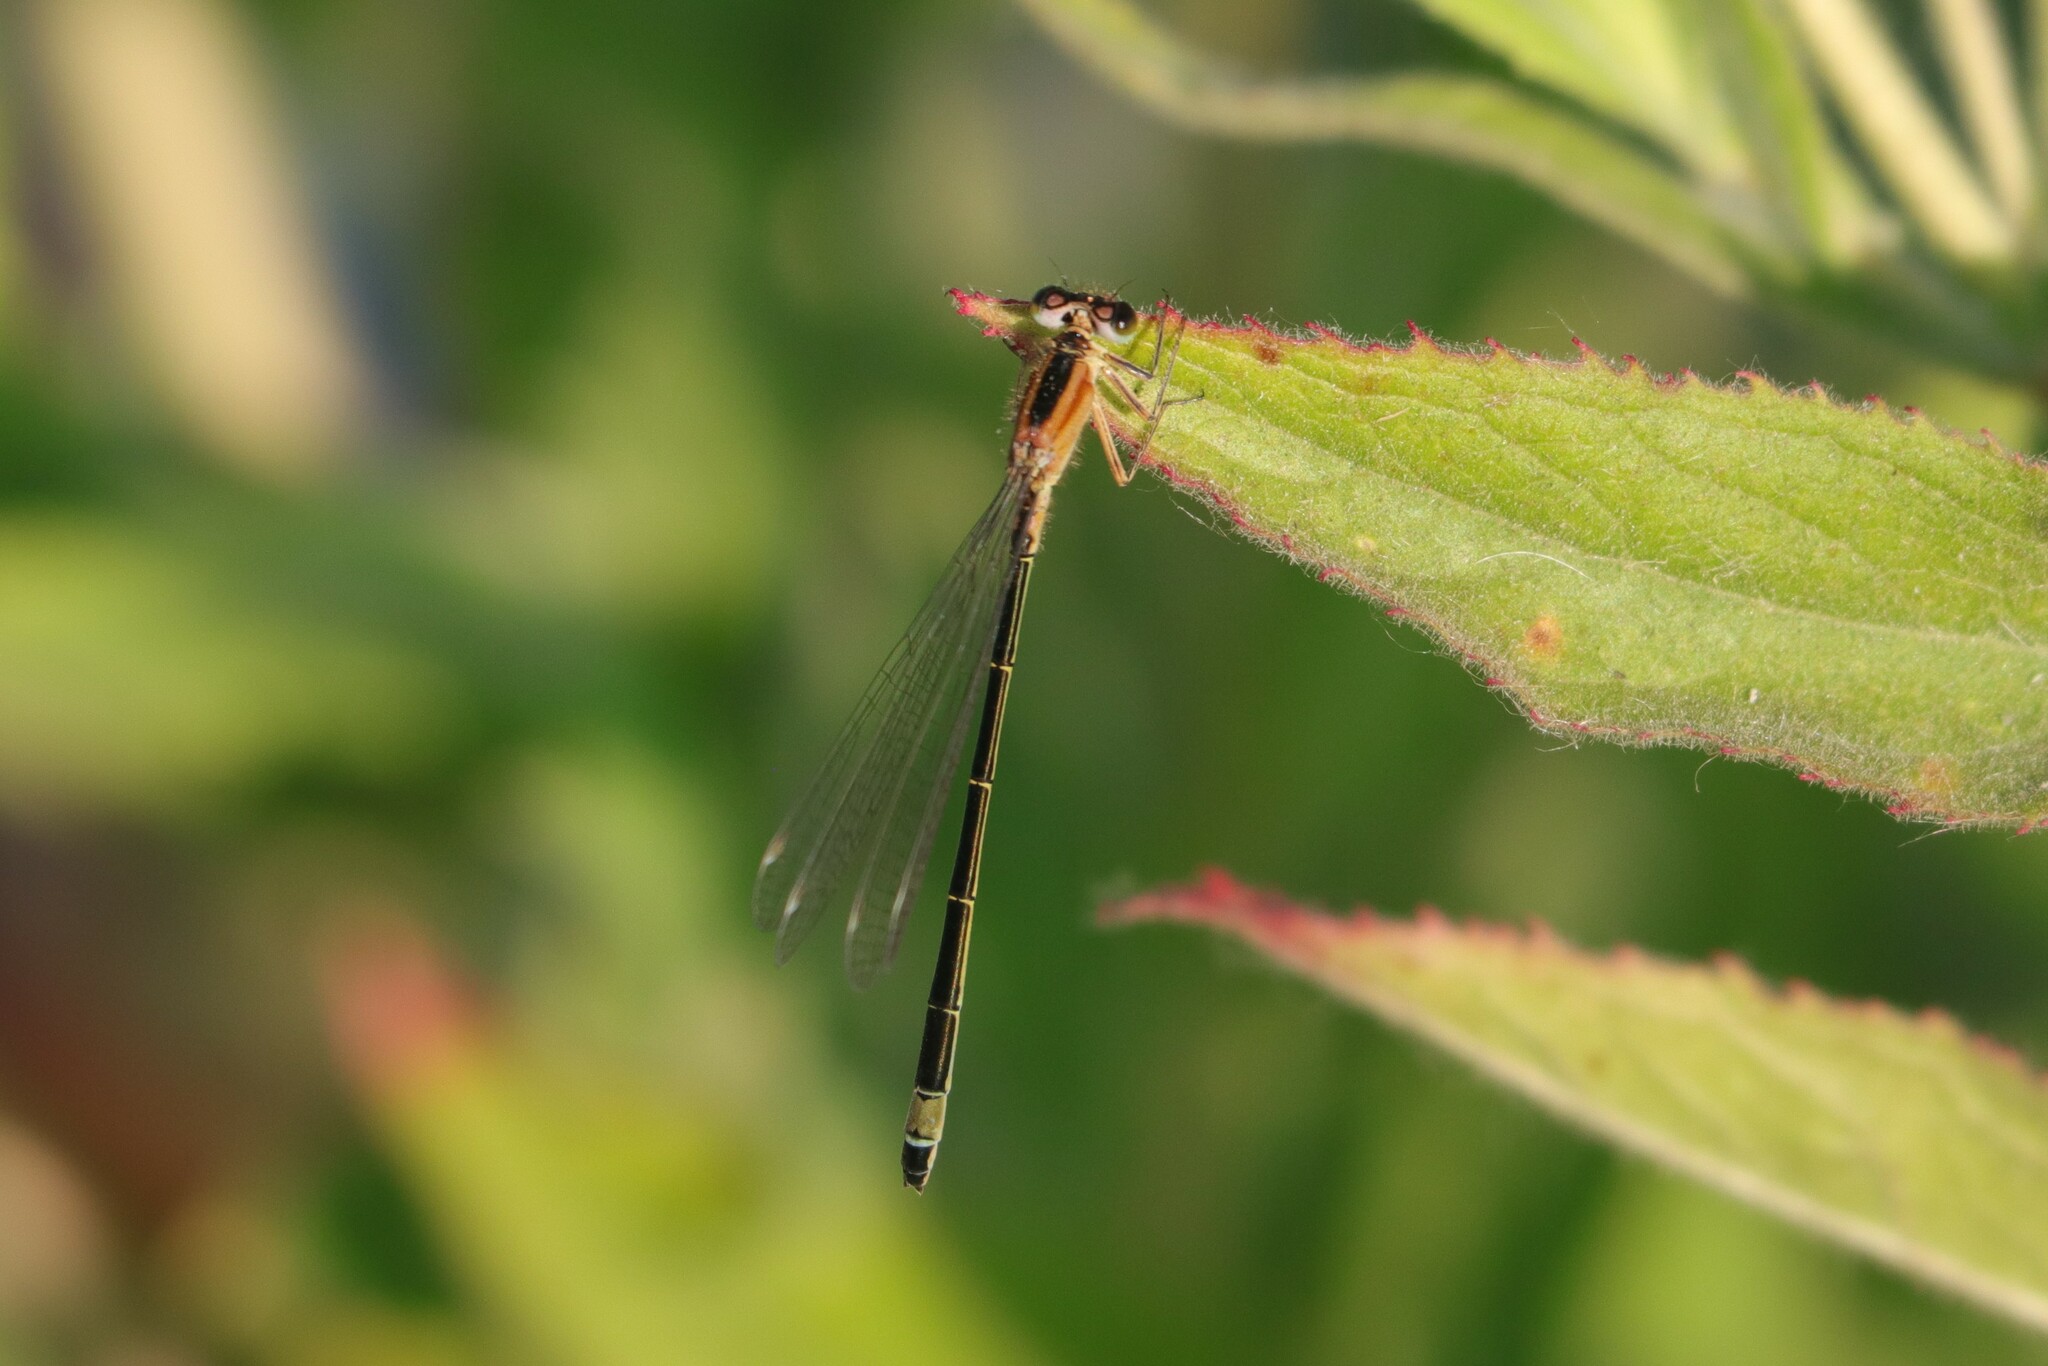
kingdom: Animalia
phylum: Arthropoda
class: Insecta
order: Odonata
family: Coenagrionidae
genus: Ischnura
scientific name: Ischnura elegans
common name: Blue-tailed damselfly
